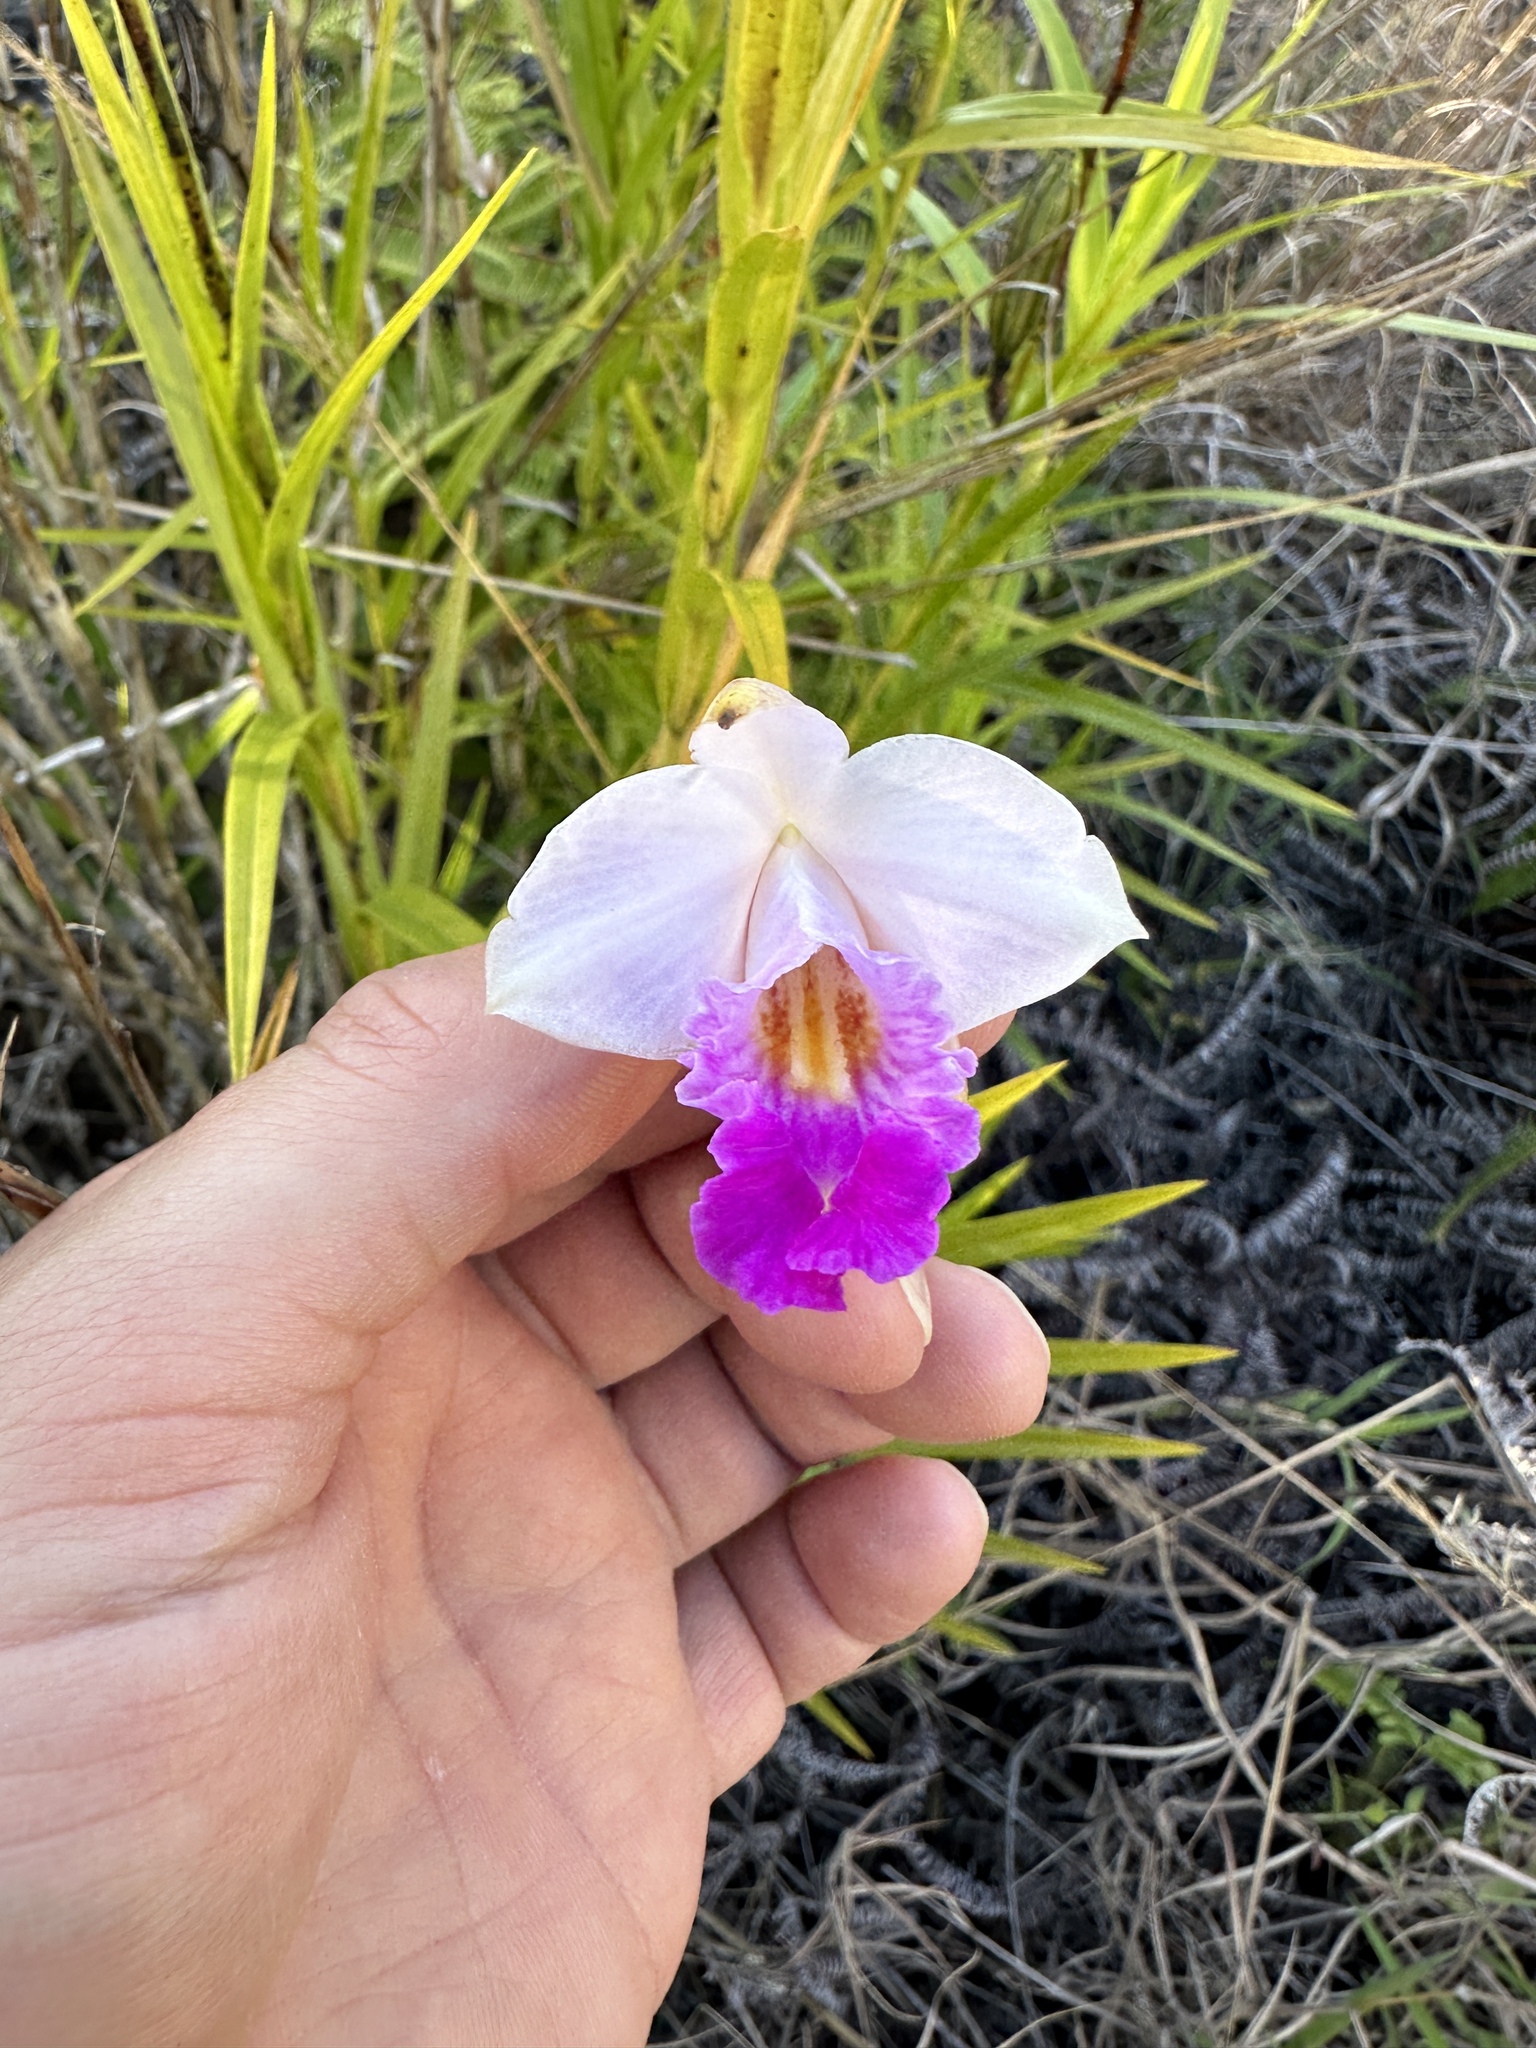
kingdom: Plantae
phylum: Tracheophyta
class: Liliopsida
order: Asparagales
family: Orchidaceae
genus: Arundina
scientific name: Arundina graminifolia
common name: Bamboo orchid
